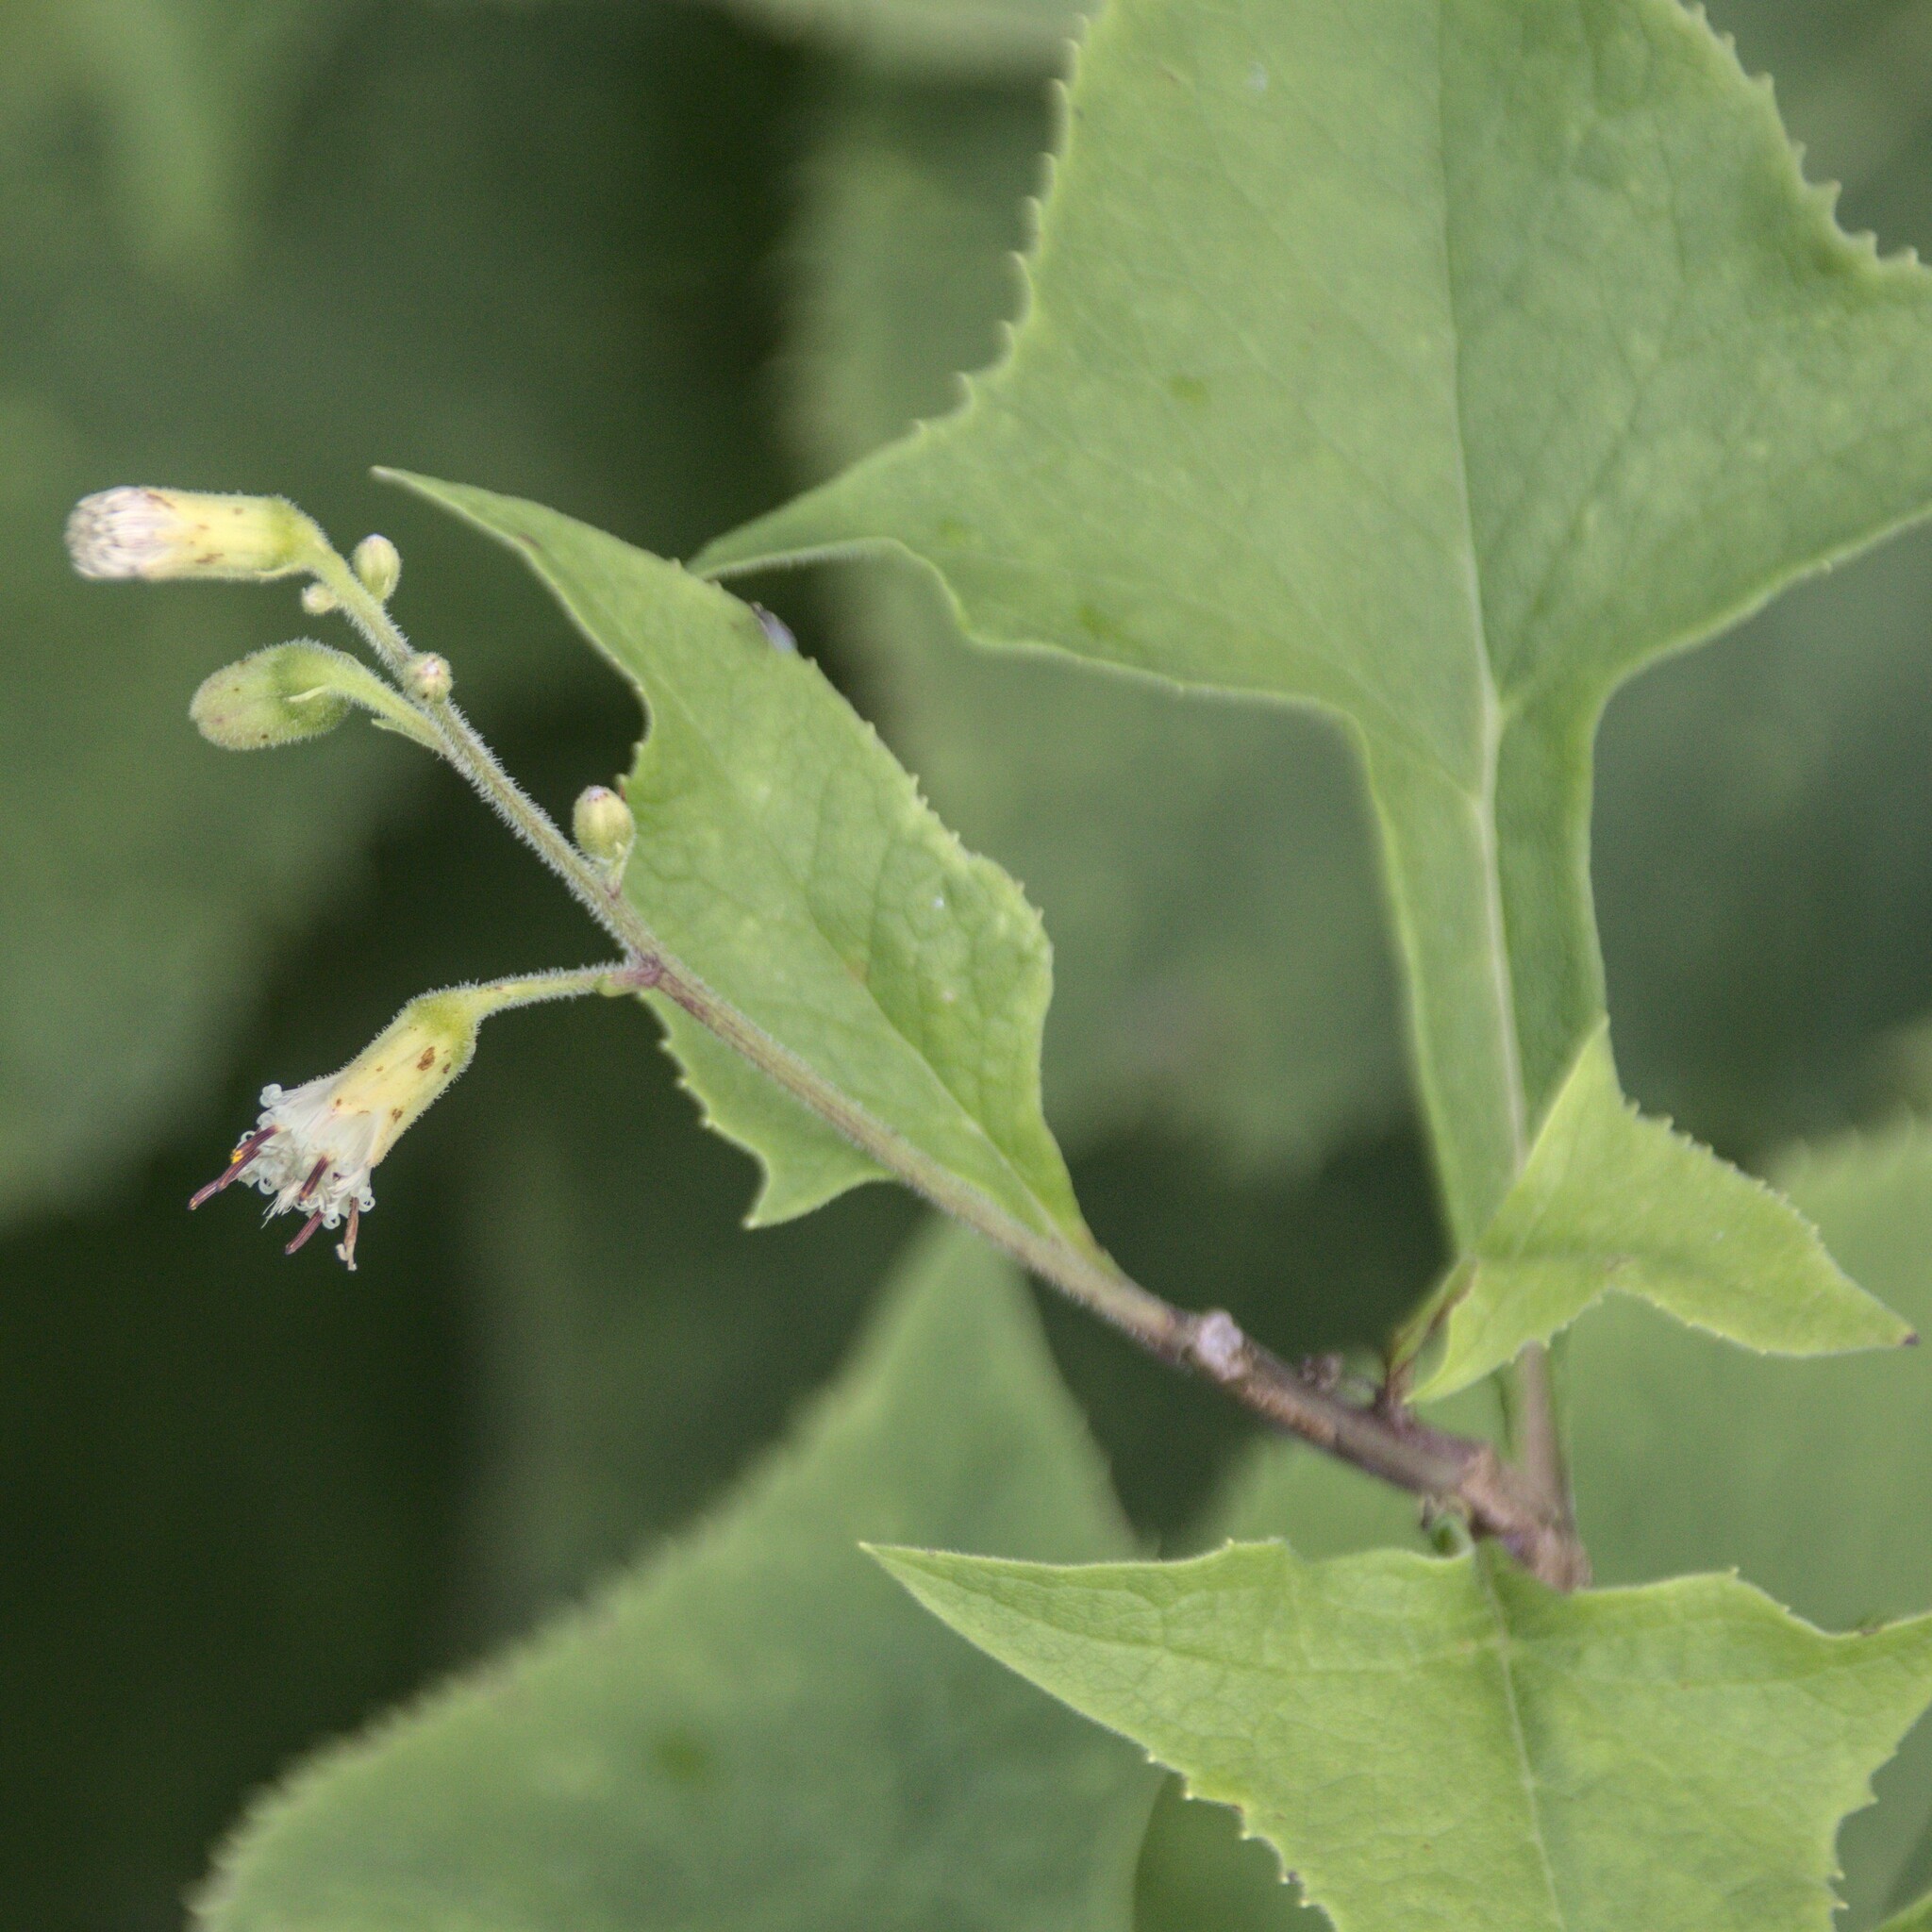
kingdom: Plantae
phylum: Tracheophyta
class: Magnoliopsida
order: Asterales
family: Asteraceae
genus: Parasenecio
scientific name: Parasenecio hastatus
